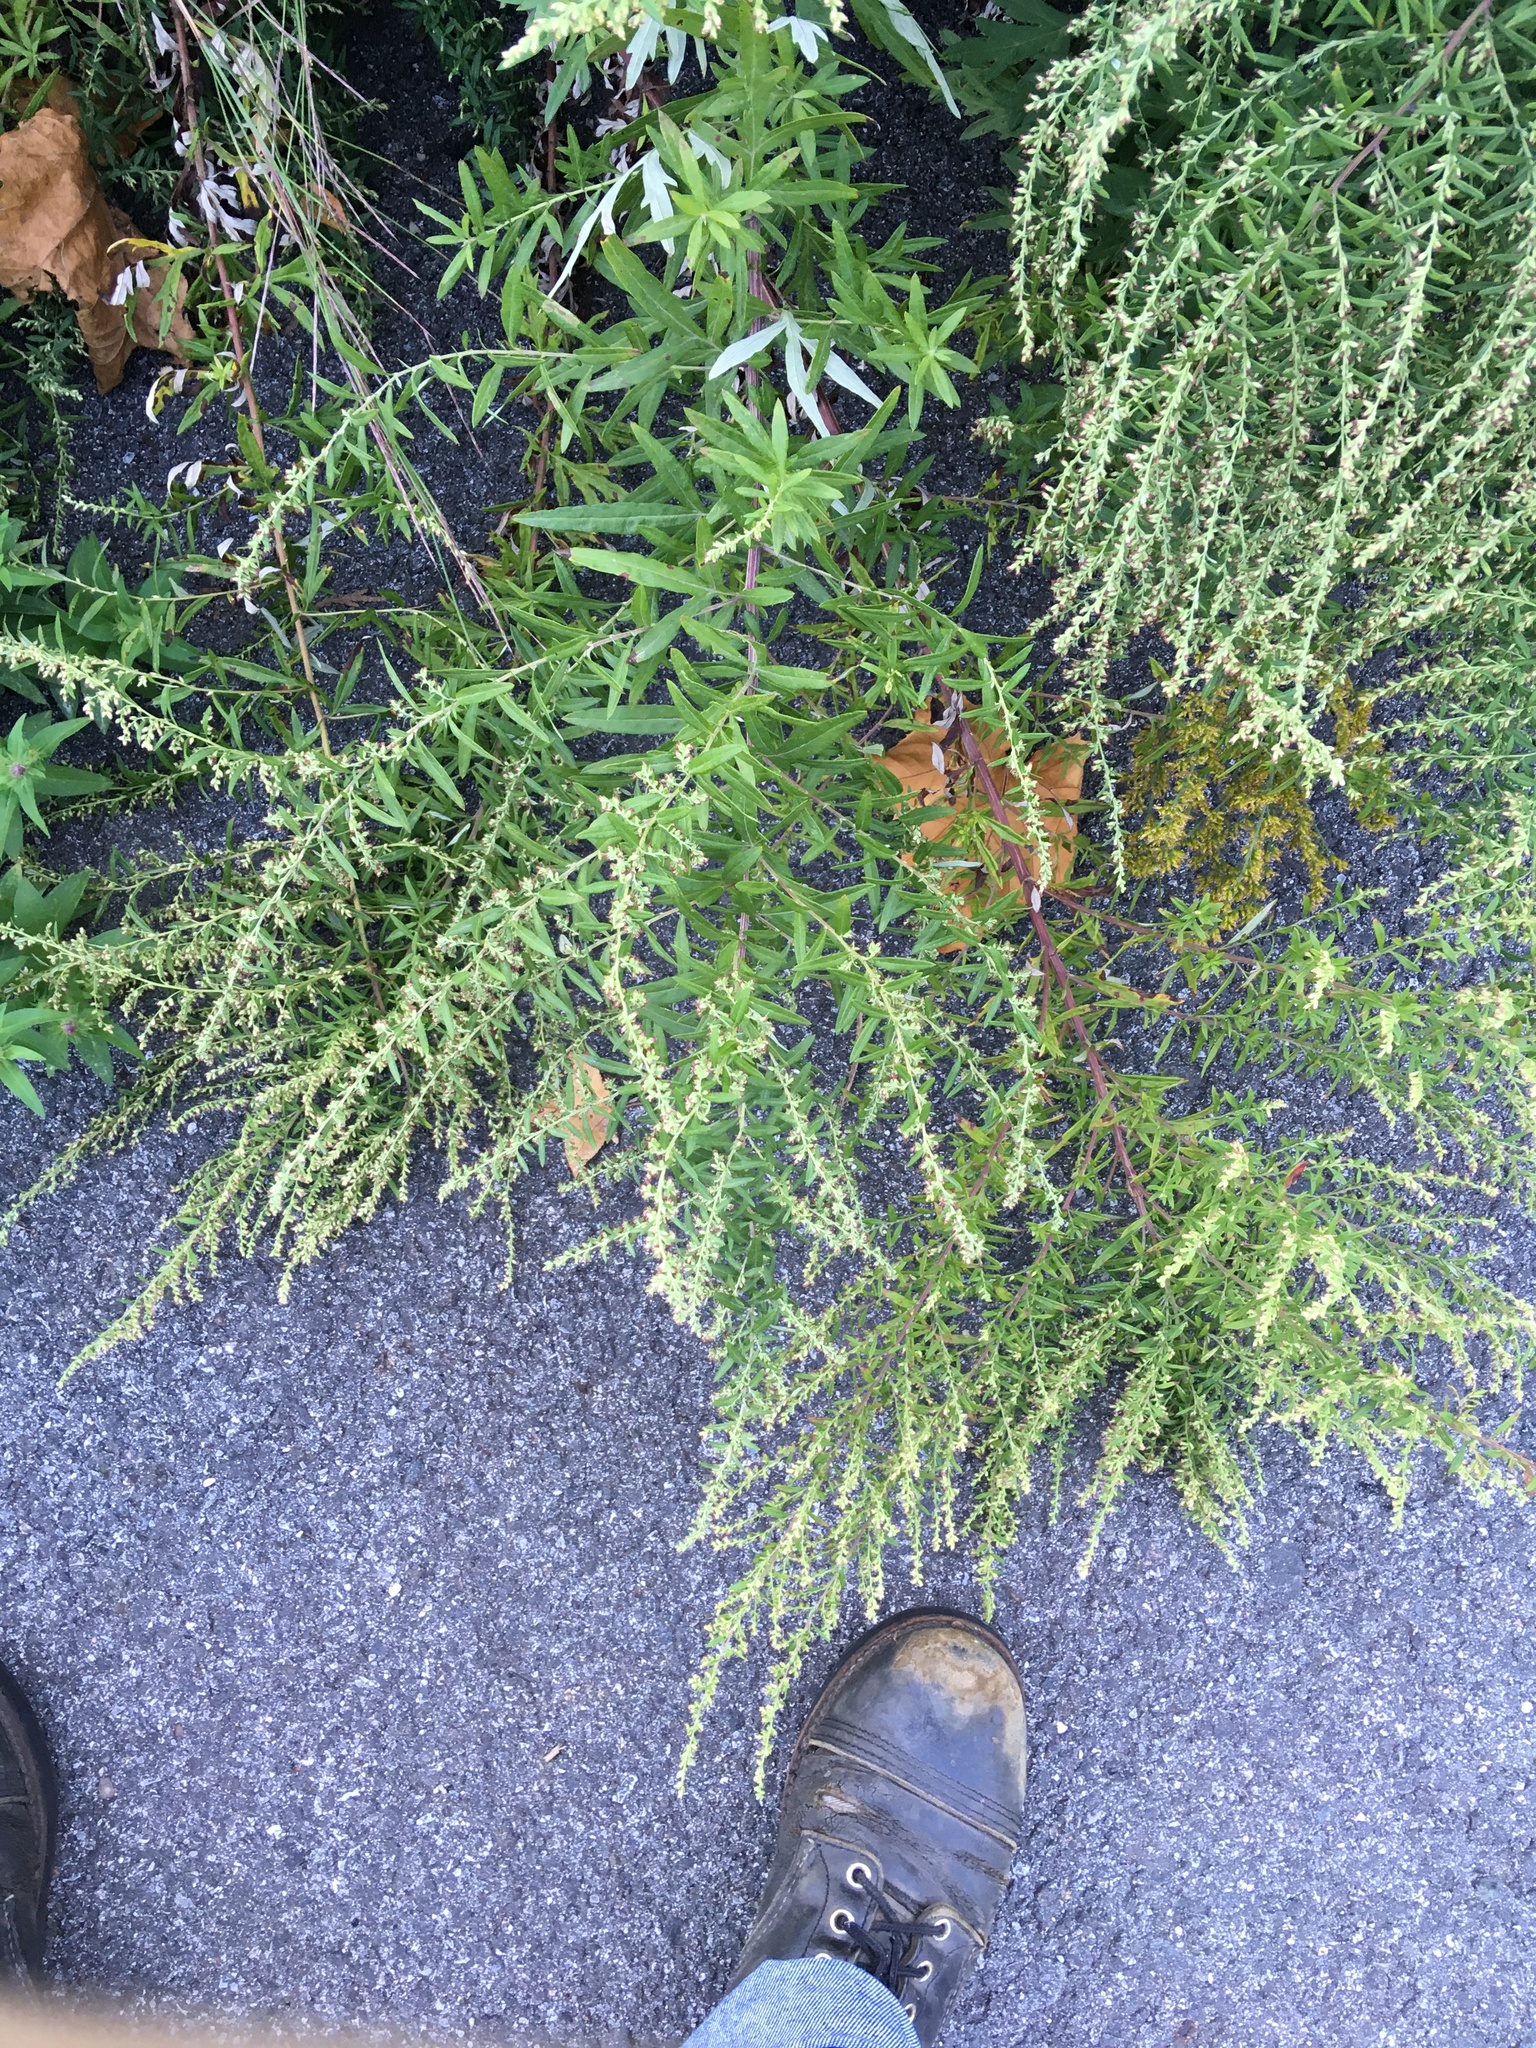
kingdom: Plantae
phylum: Tracheophyta
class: Magnoliopsida
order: Asterales
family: Asteraceae
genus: Artemisia
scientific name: Artemisia vulgaris
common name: Mugwort
